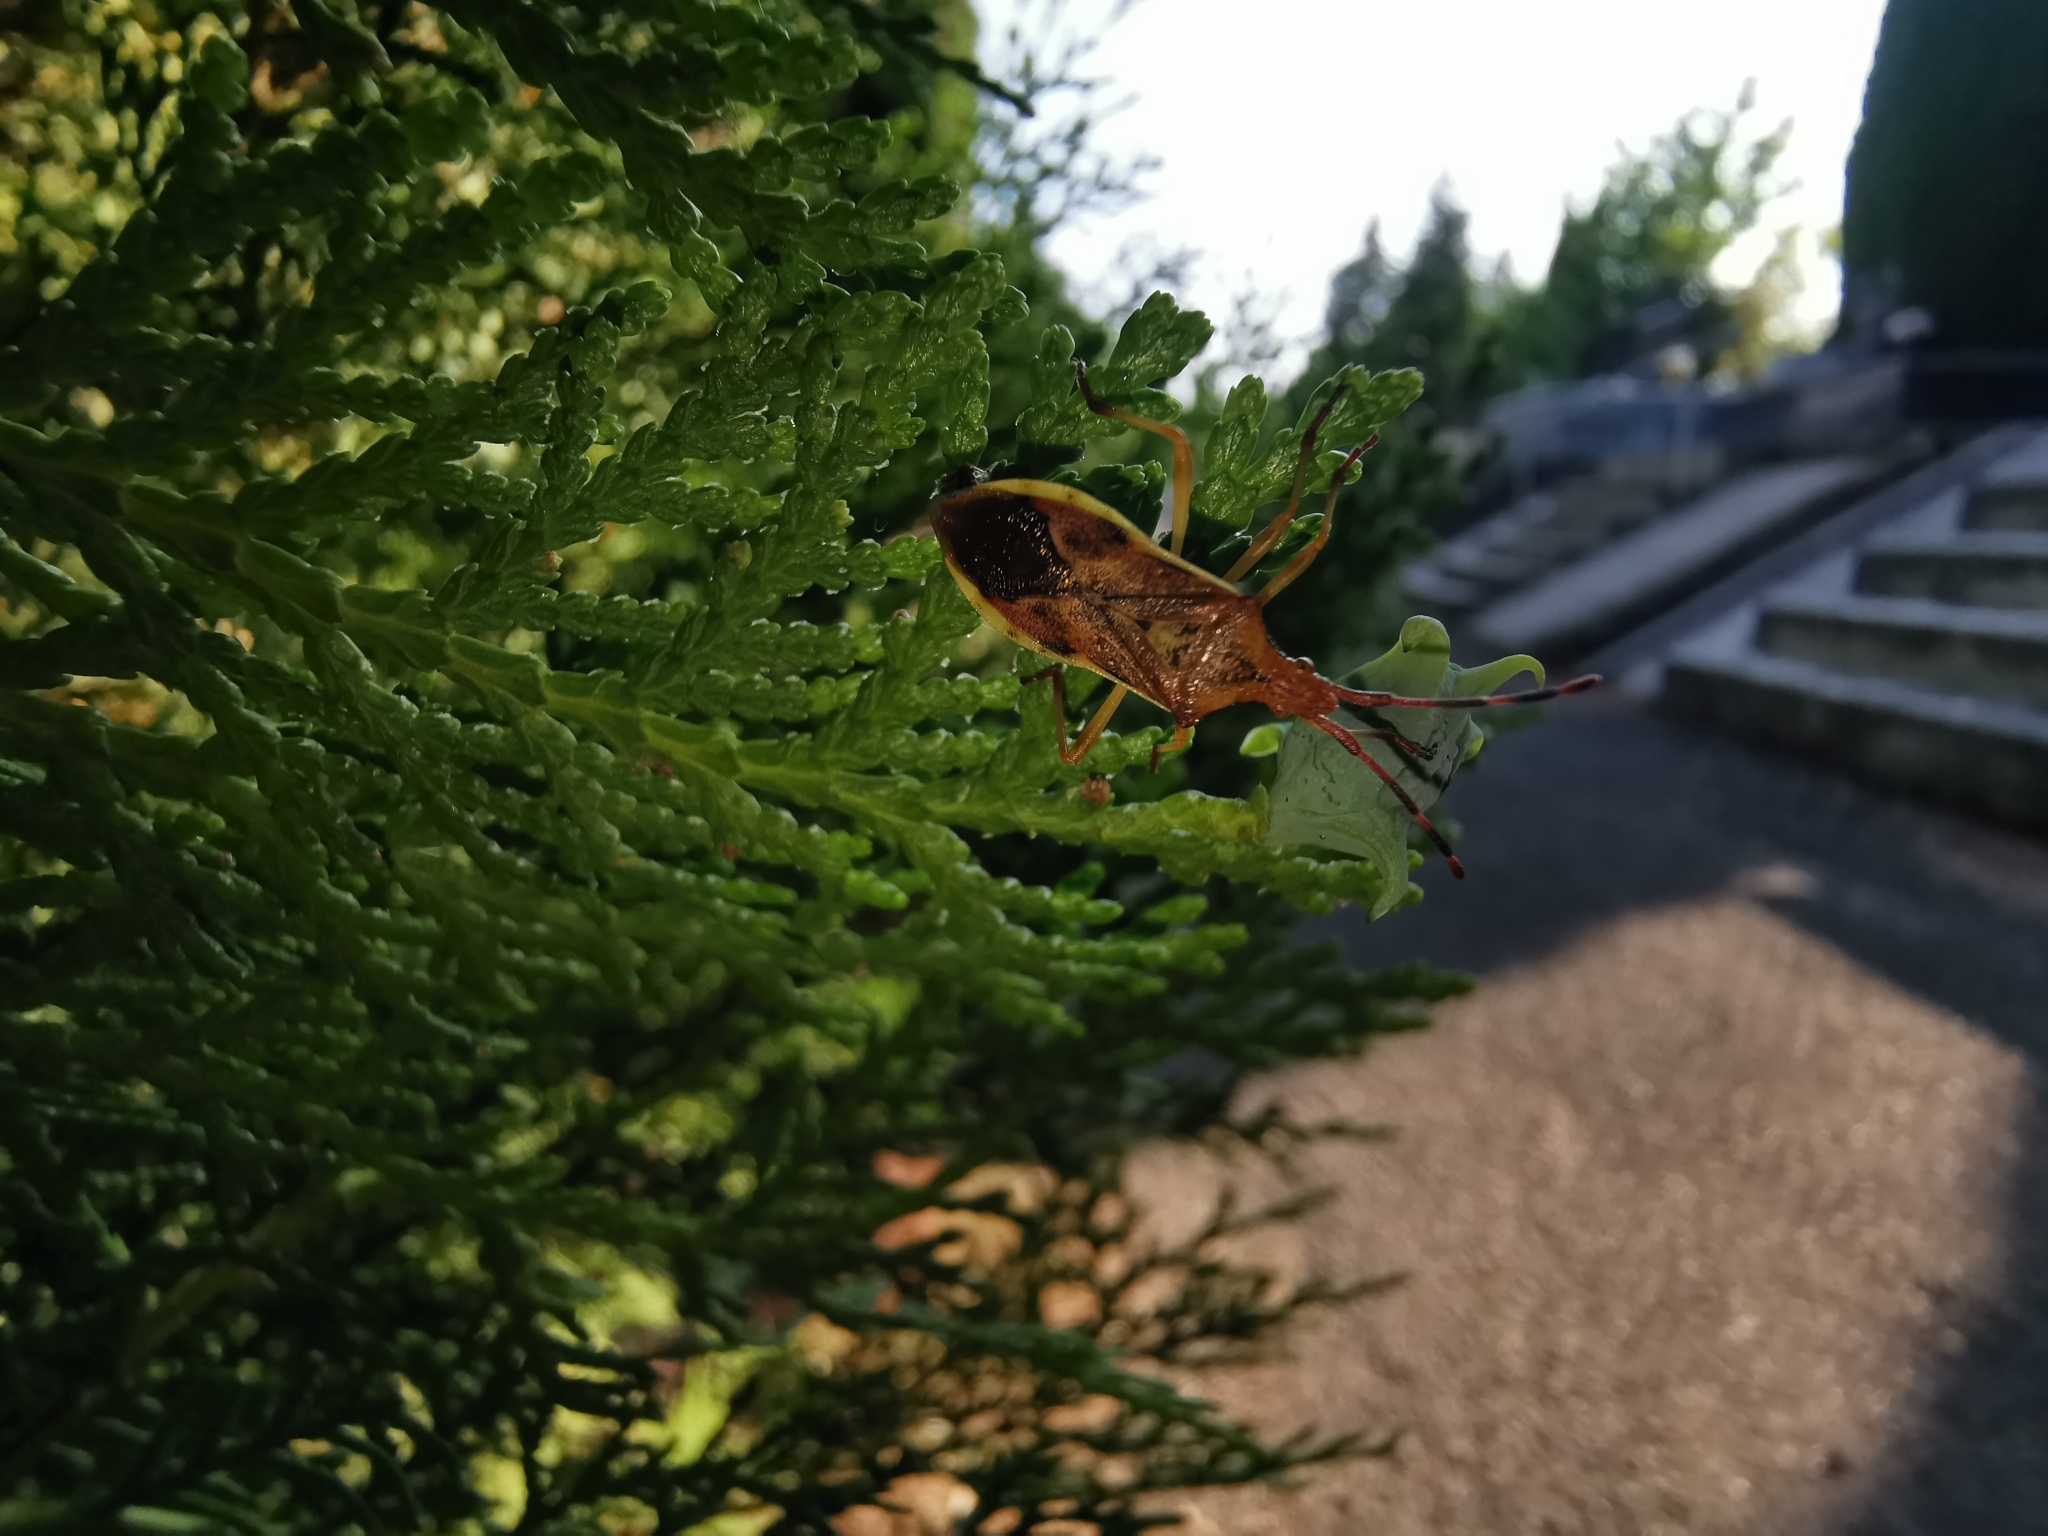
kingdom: Animalia
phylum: Arthropoda
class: Insecta
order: Hemiptera
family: Coreidae
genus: Gonocerus
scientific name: Gonocerus juniperi
